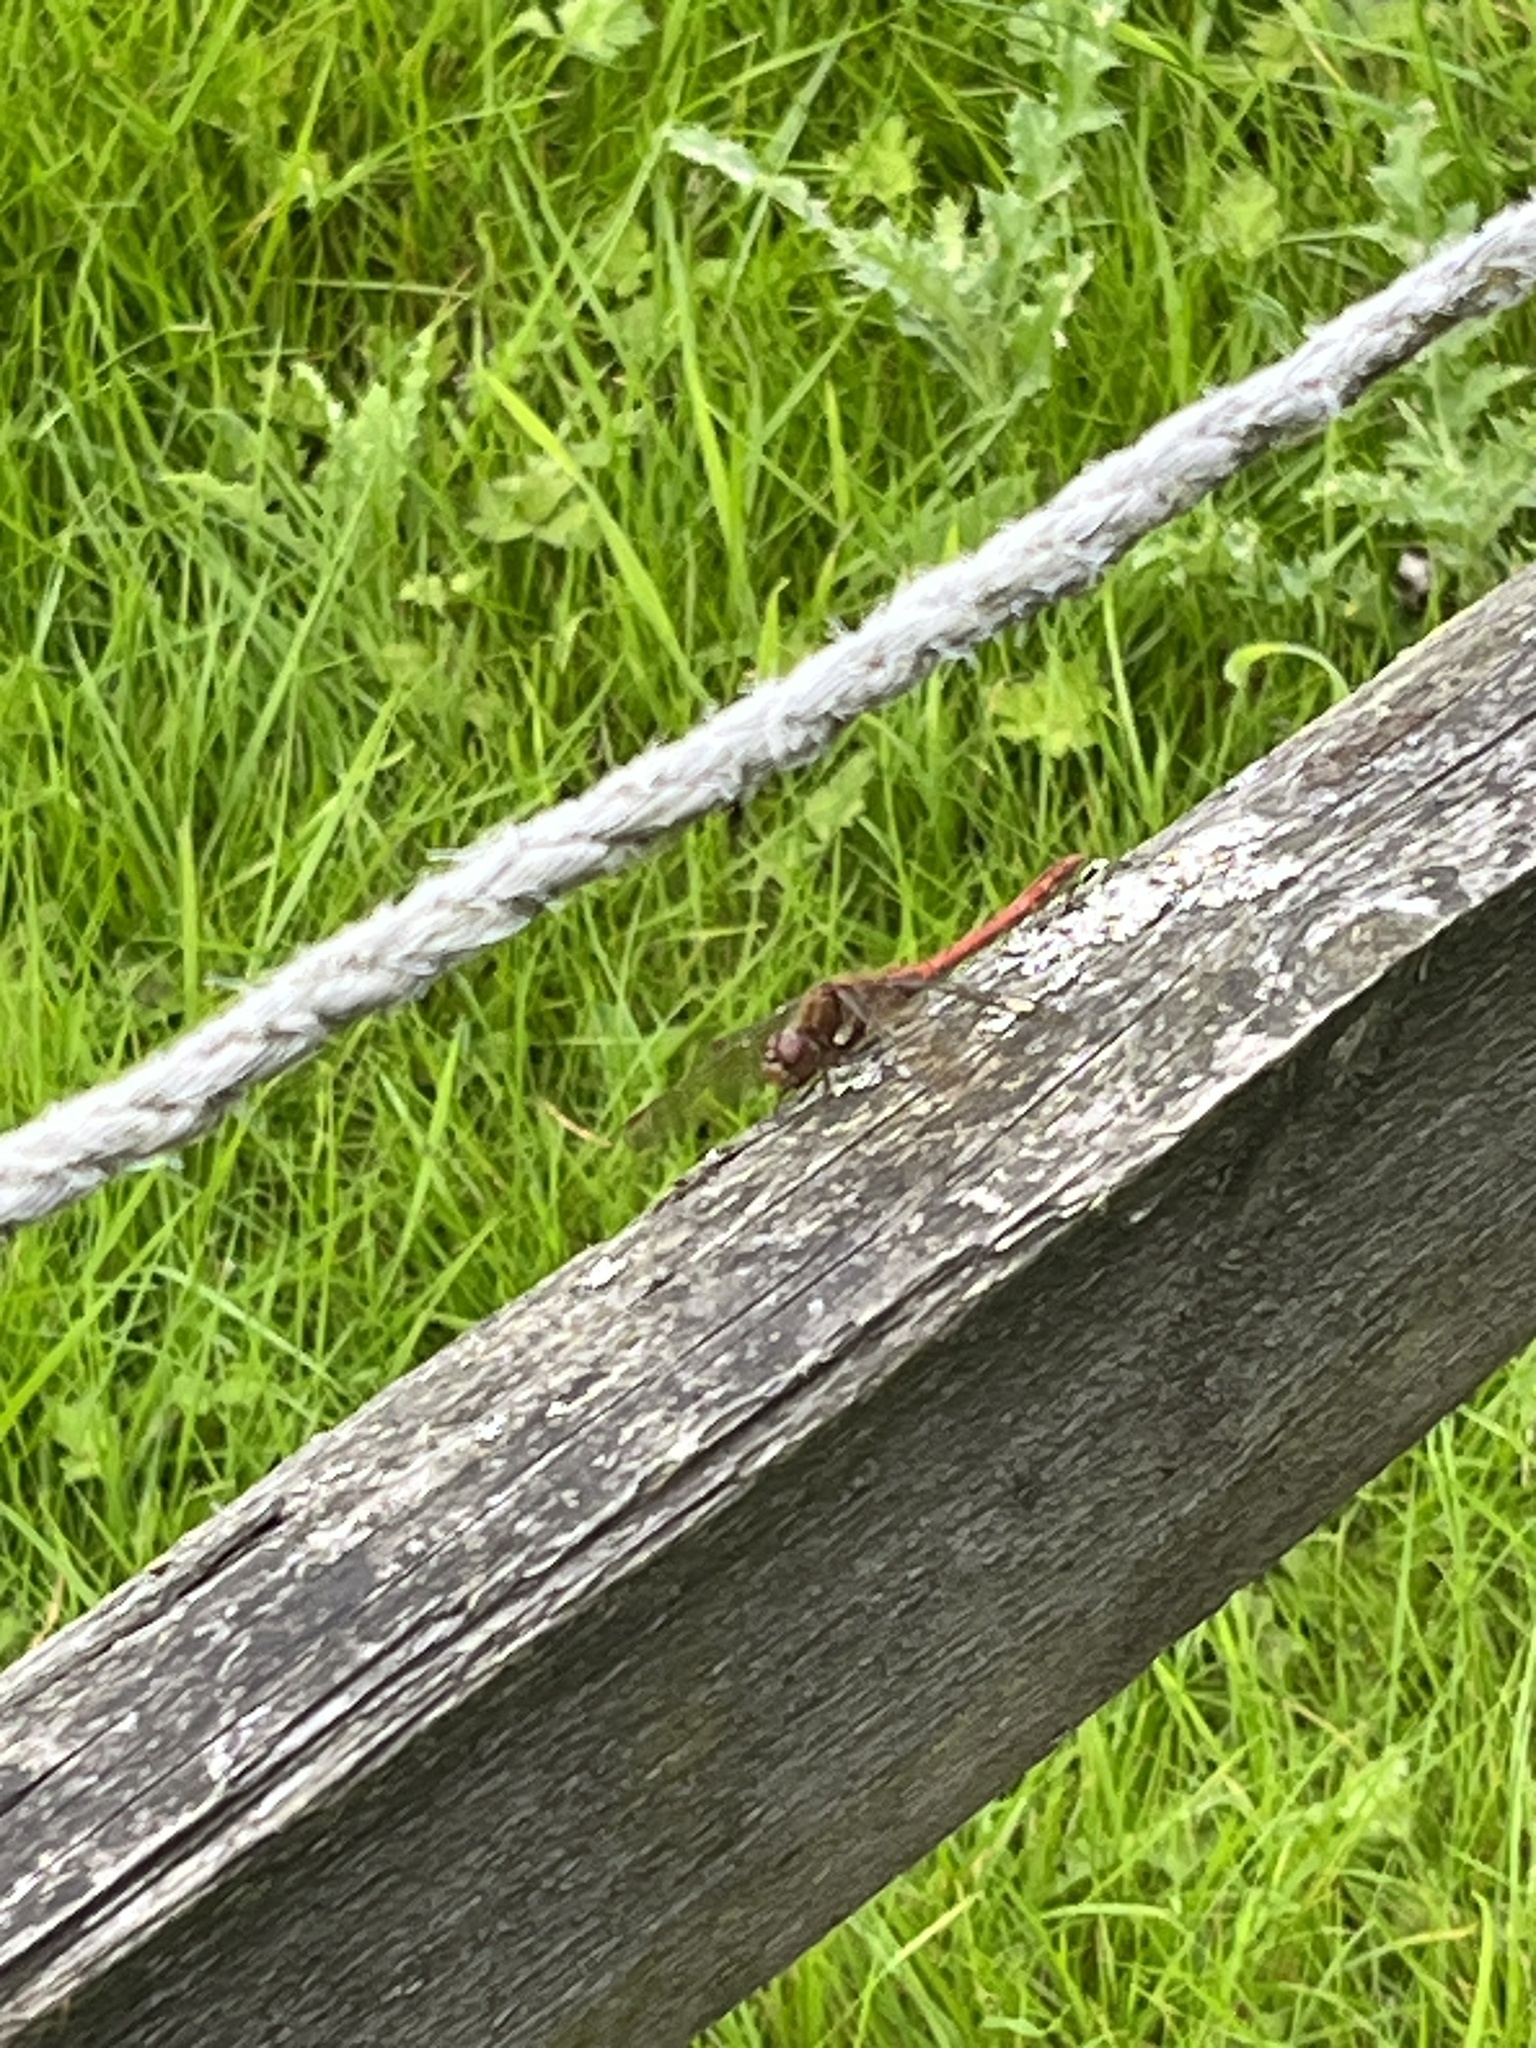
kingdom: Animalia
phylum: Arthropoda
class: Insecta
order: Odonata
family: Libellulidae
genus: Sympetrum
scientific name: Sympetrum striolatum
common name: Common darter
